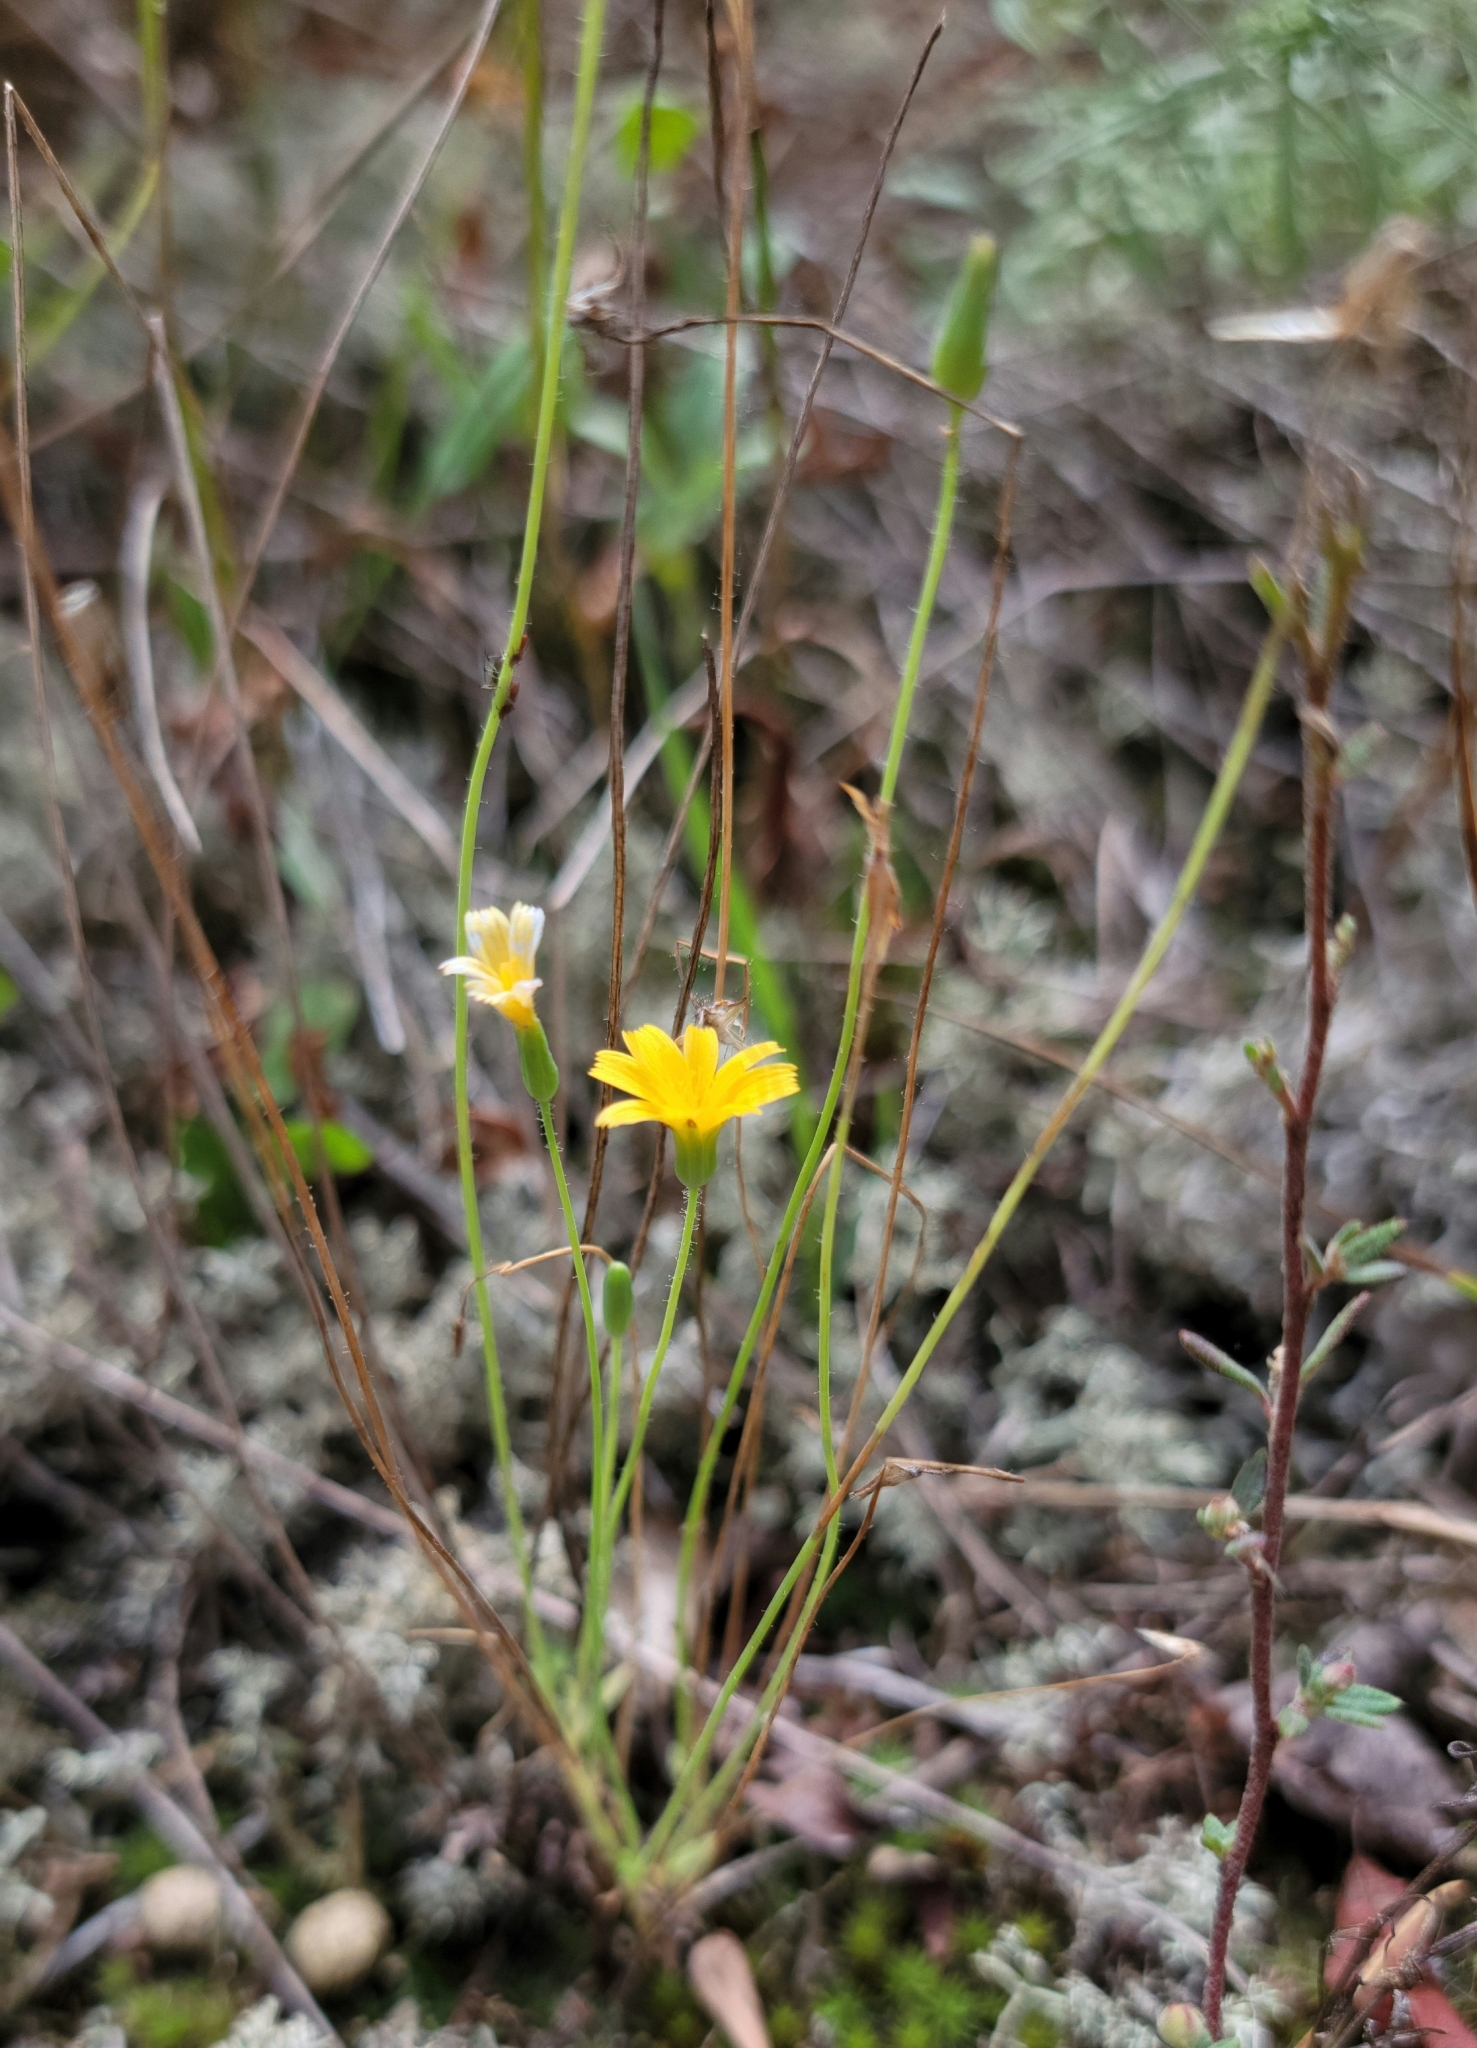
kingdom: Plantae
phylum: Tracheophyta
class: Magnoliopsida
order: Asterales
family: Asteraceae
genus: Krigia
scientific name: Krigia virginica
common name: Virginia dwarf-dandelion
